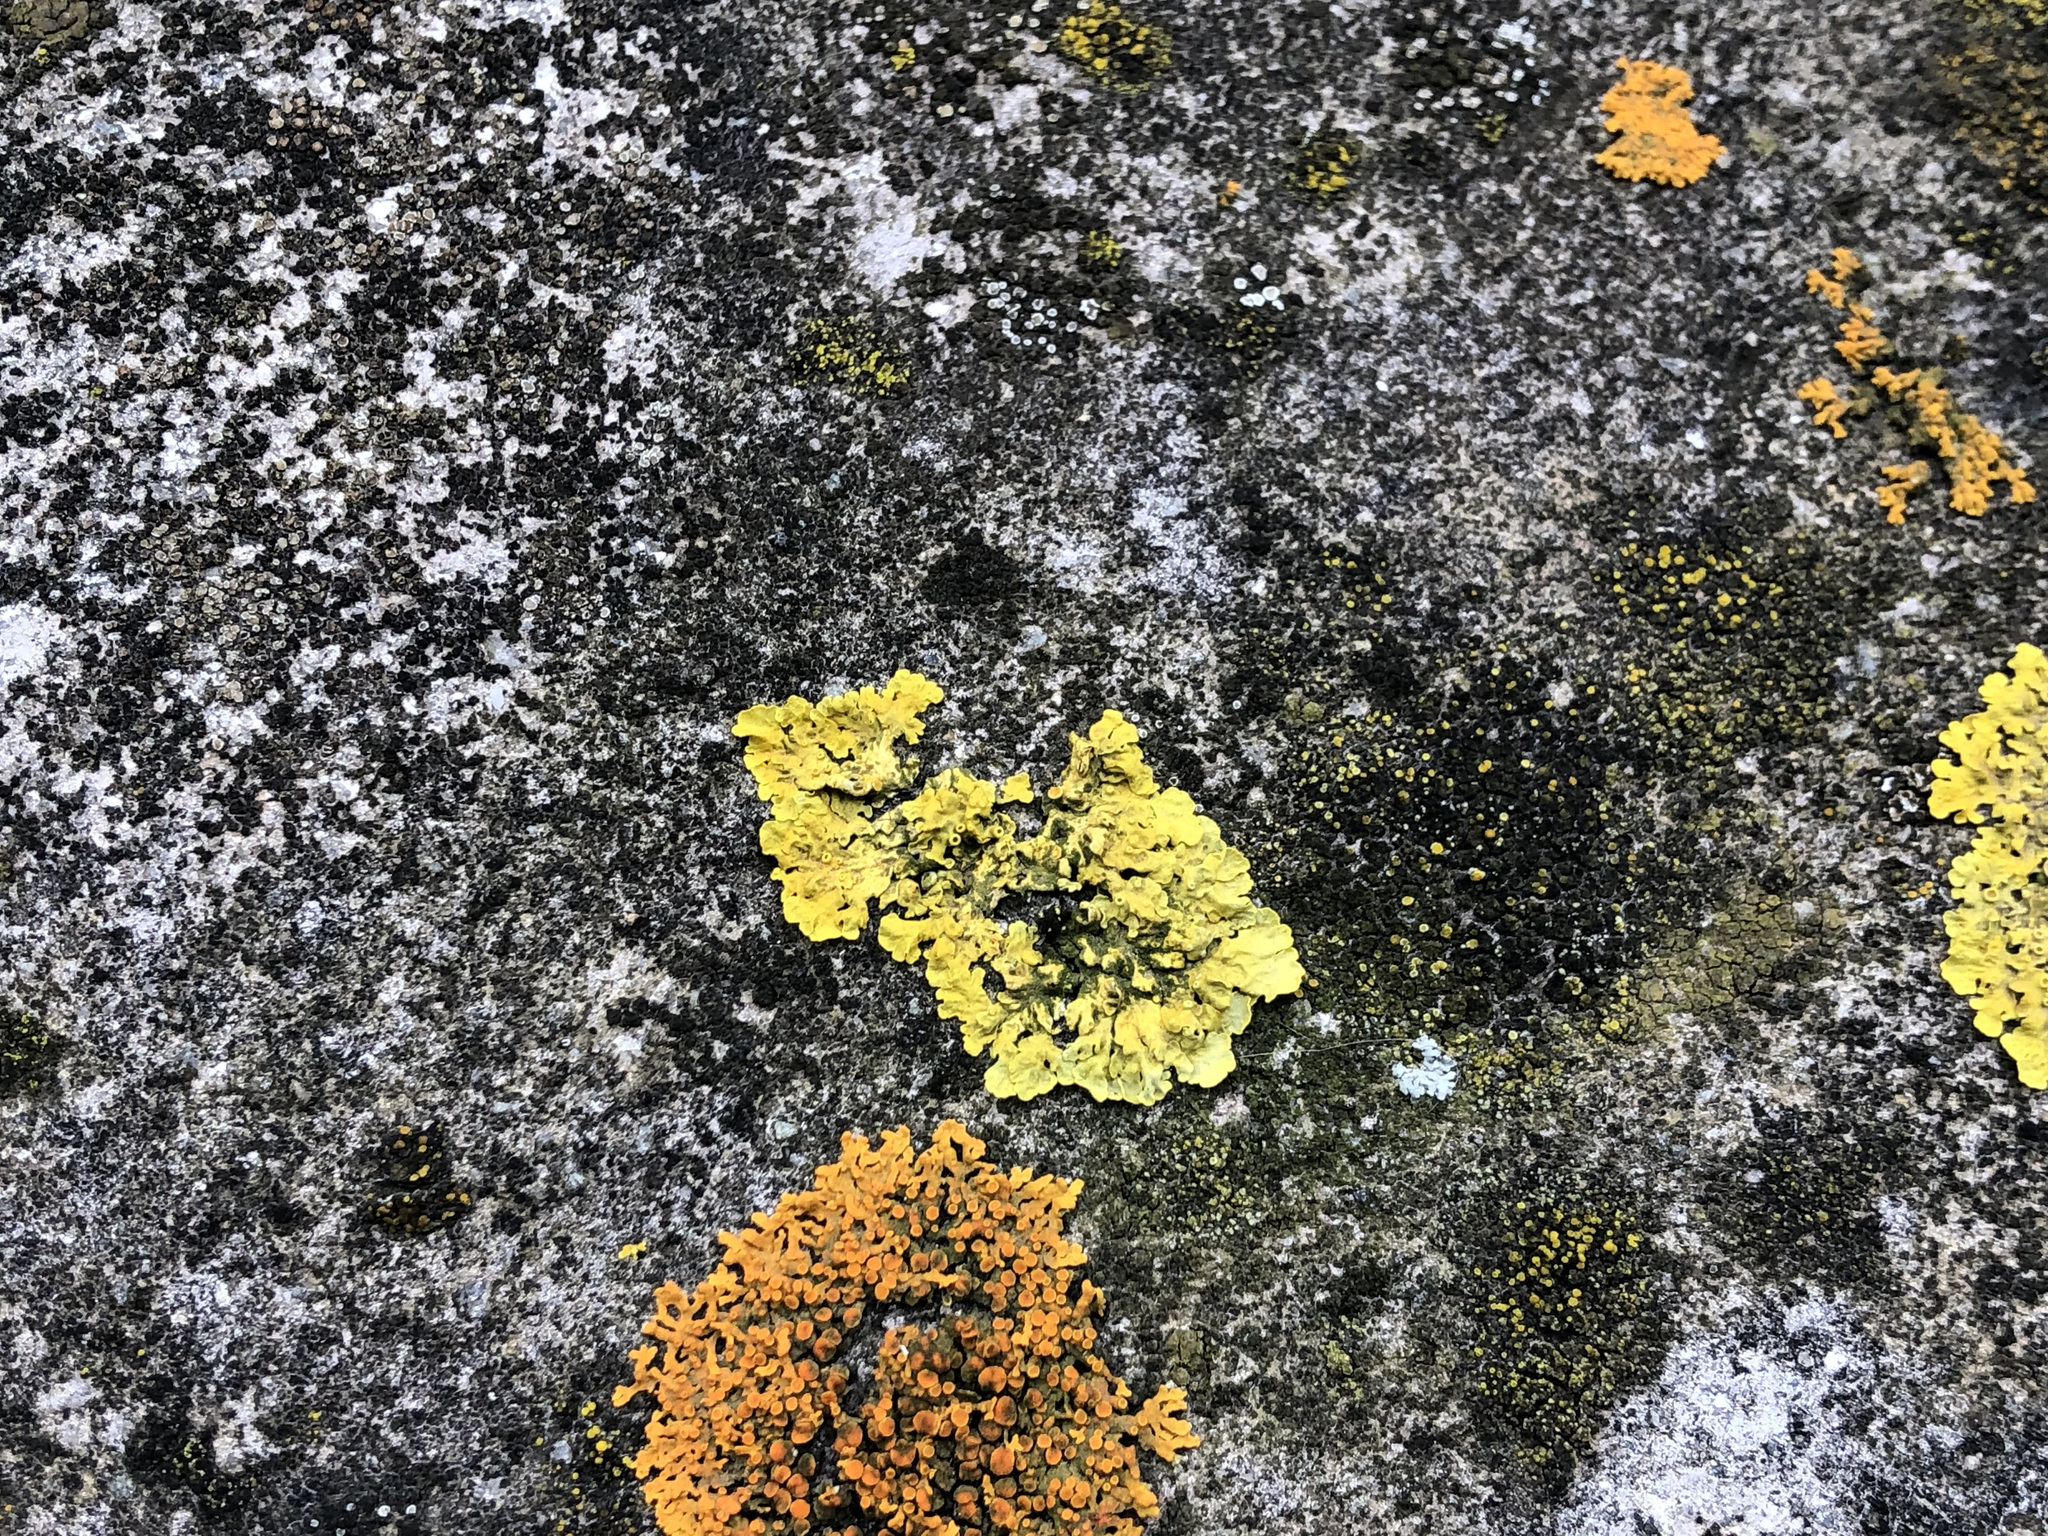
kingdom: Fungi
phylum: Ascomycota
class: Lecanoromycetes
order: Teloschistales
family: Teloschistaceae
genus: Xanthoria
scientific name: Xanthoria parietina
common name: Common orange lichen
